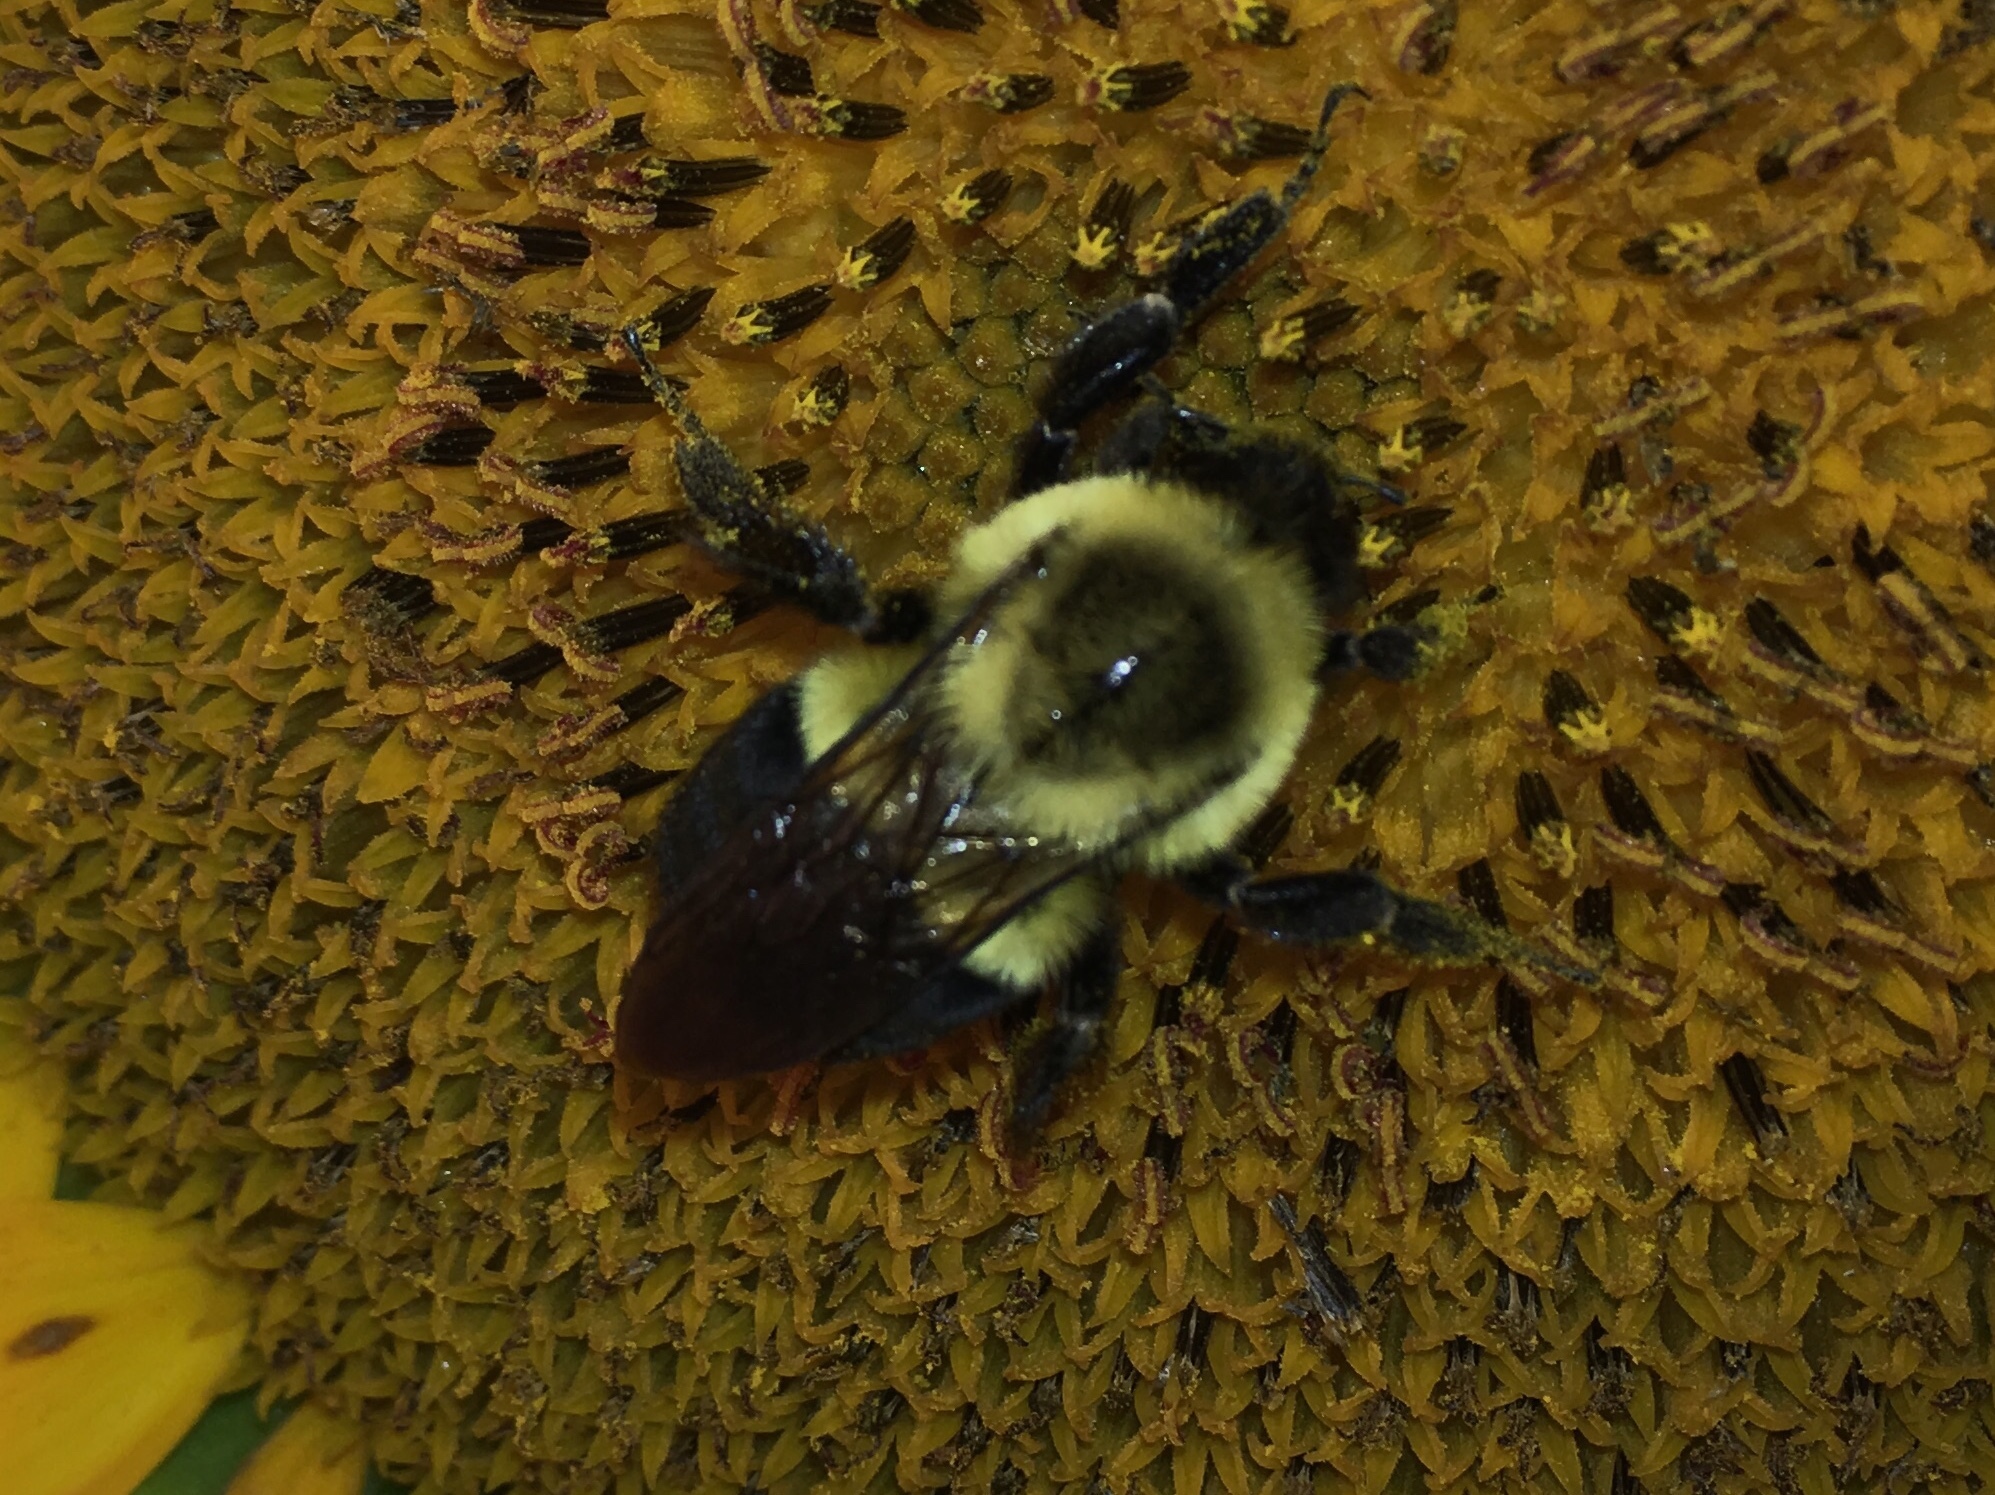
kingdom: Animalia
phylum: Arthropoda
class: Insecta
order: Hymenoptera
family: Apidae
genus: Bombus
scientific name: Bombus impatiens
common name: Common eastern bumble bee
